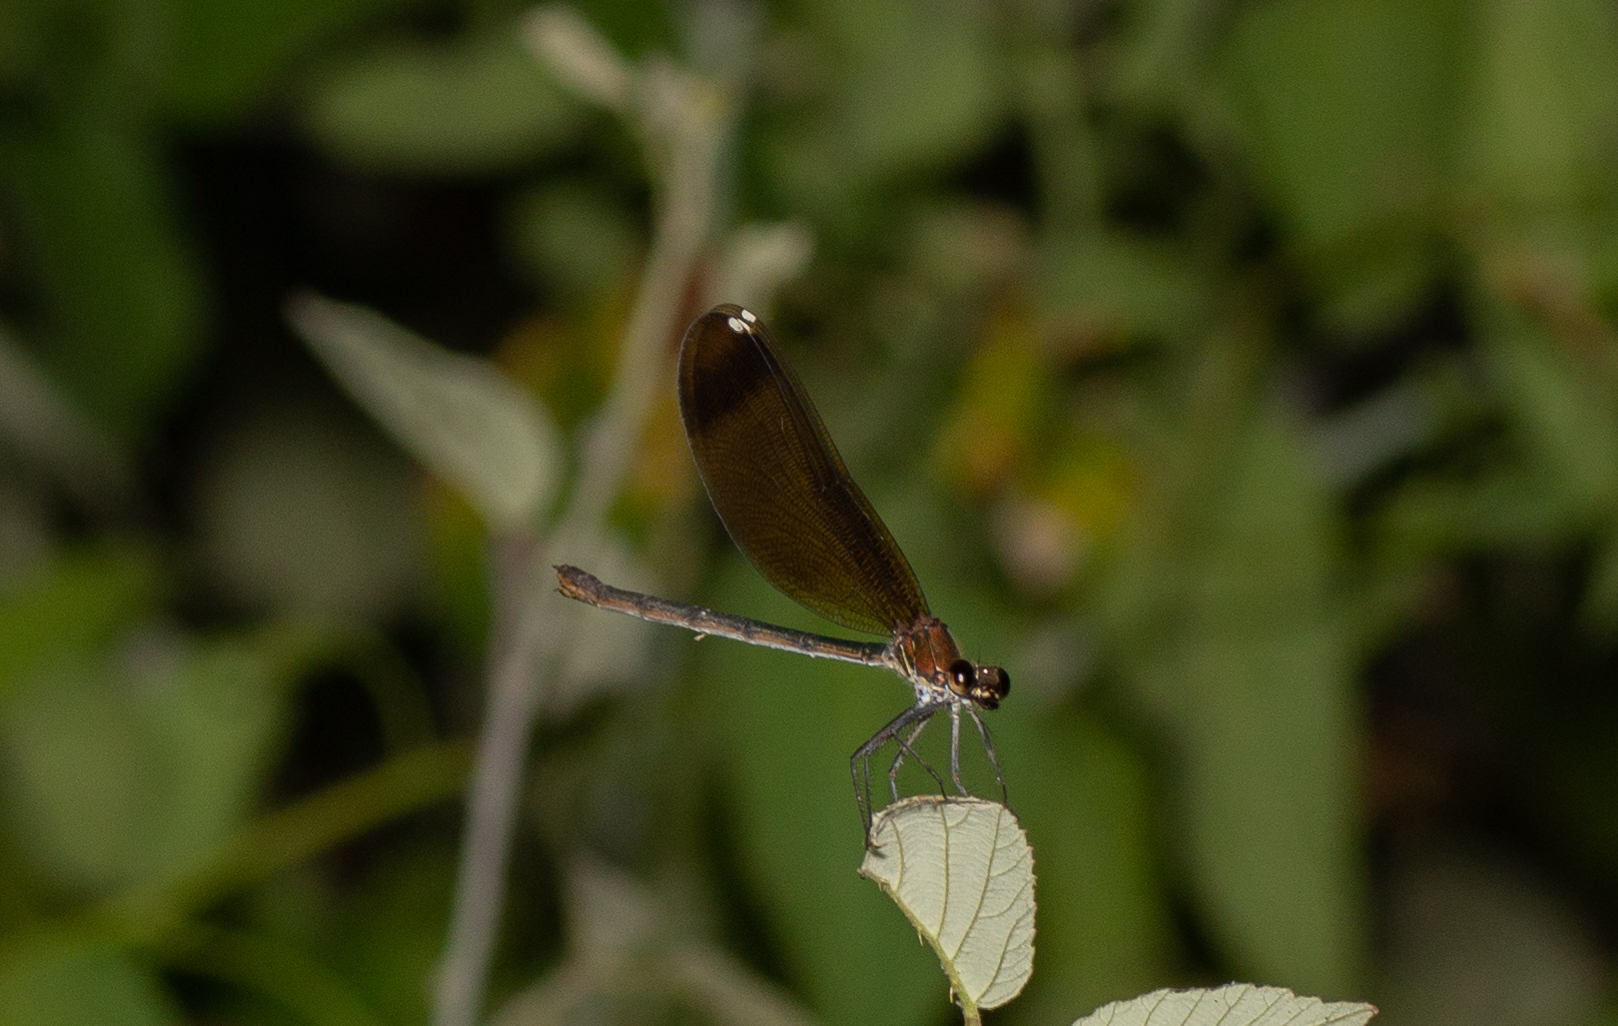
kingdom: Animalia
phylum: Arthropoda
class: Insecta
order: Odonata
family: Calopterygidae
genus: Calopteryx
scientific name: Calopteryx haemorrhoidalis
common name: Copper demoiselle
